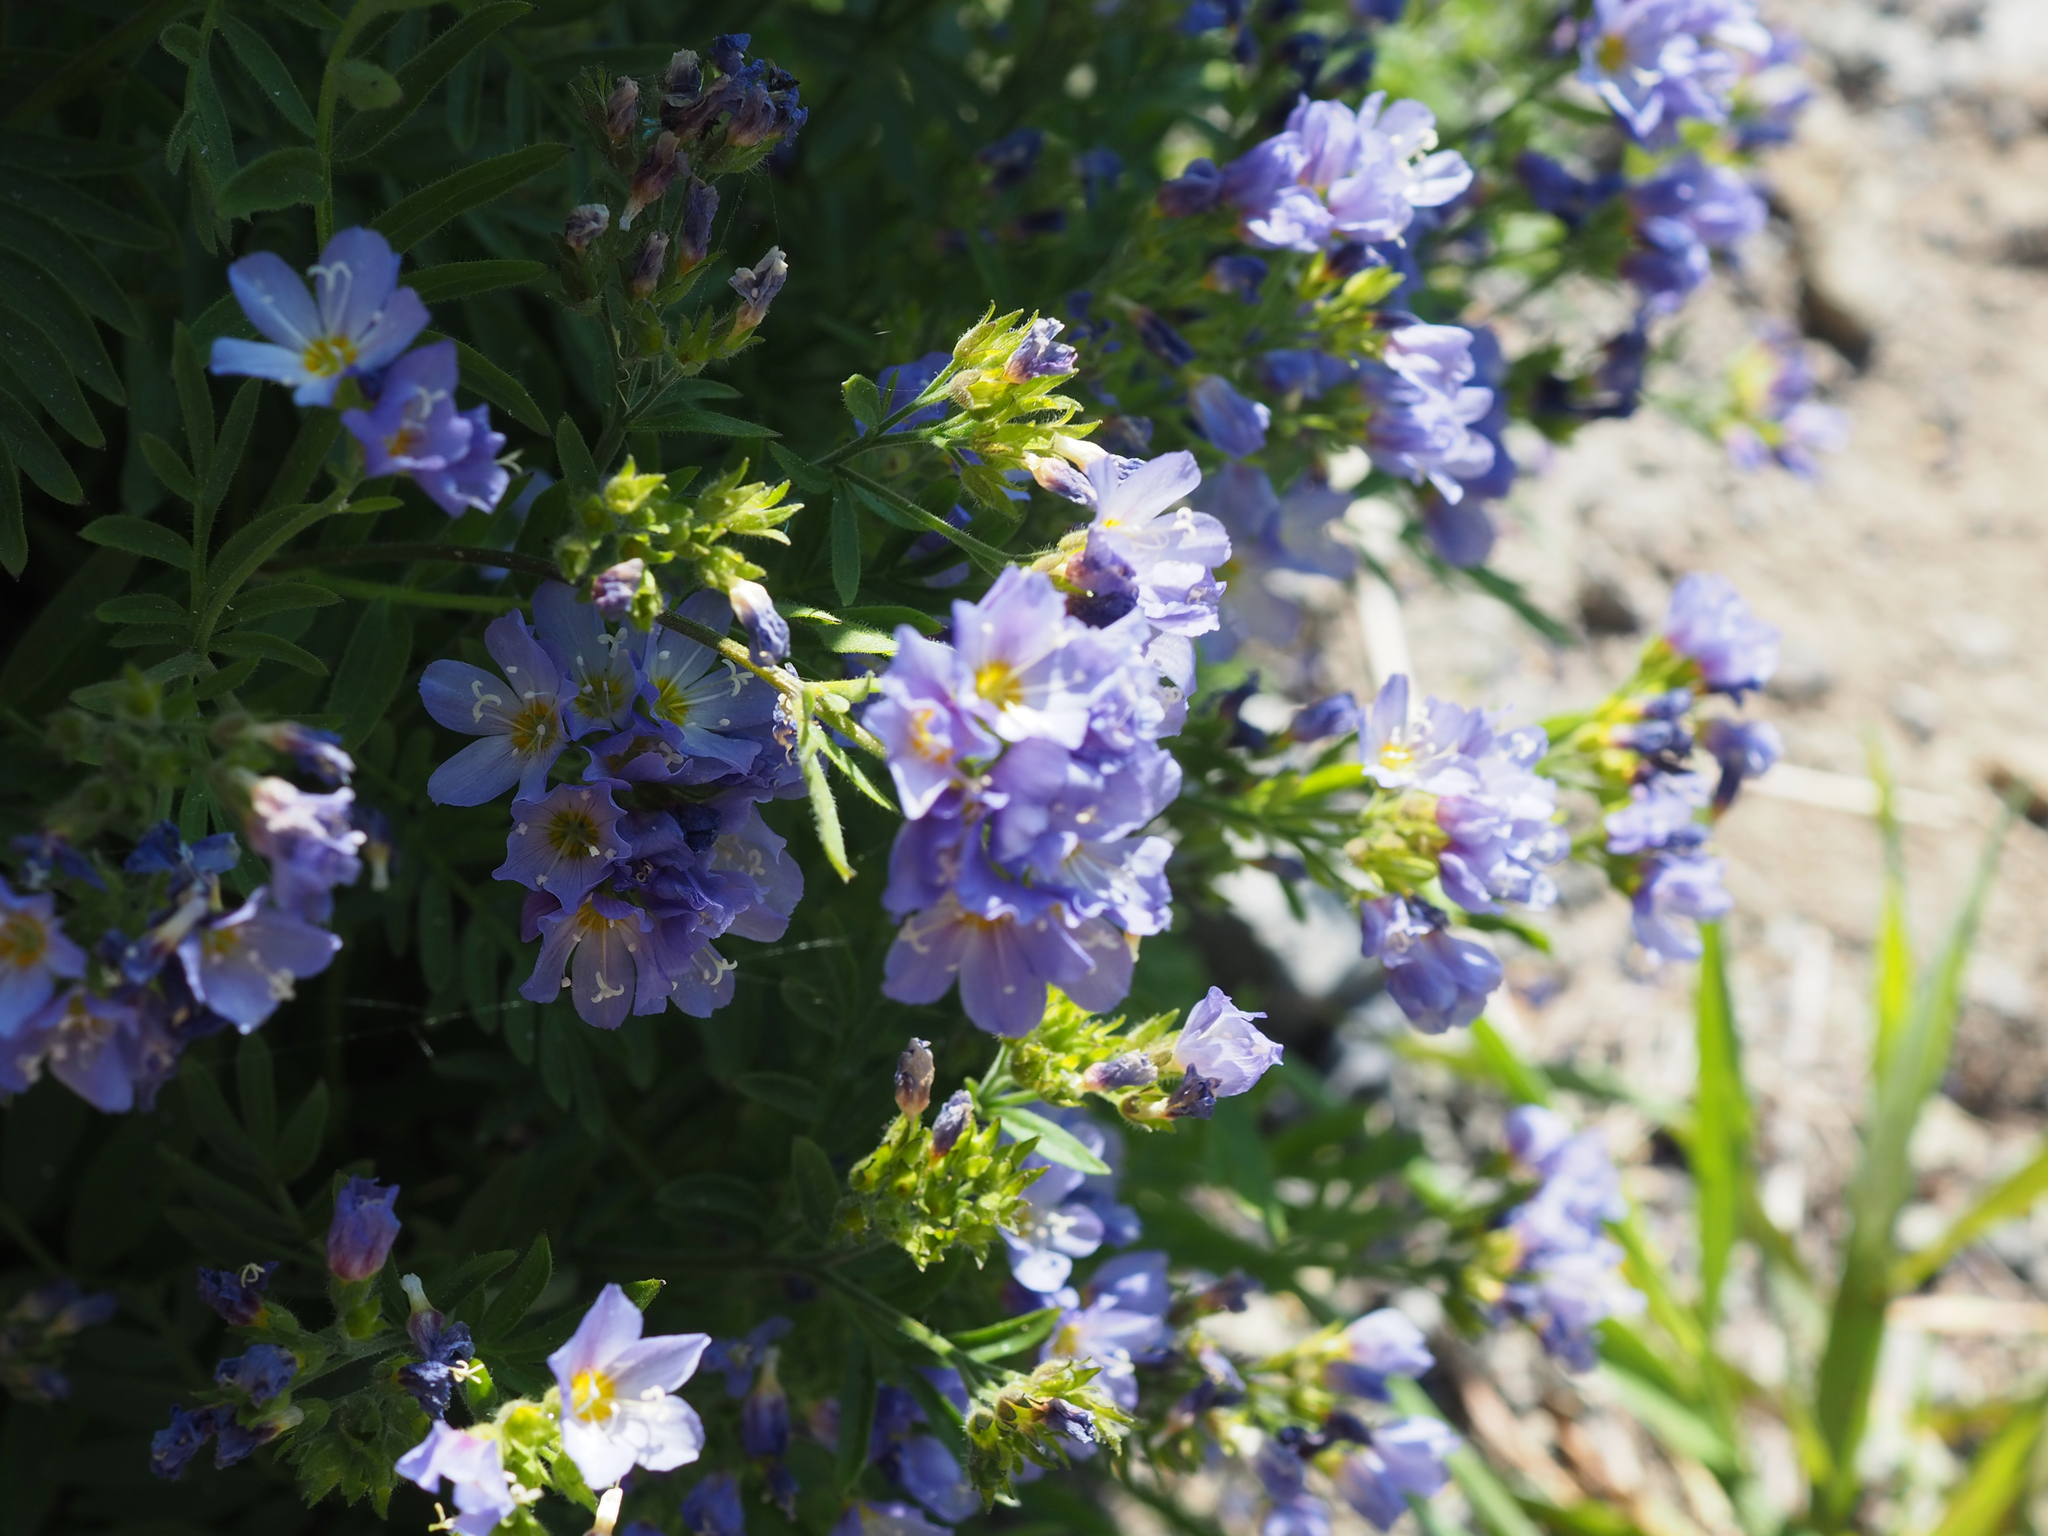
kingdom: Plantae
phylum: Tracheophyta
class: Magnoliopsida
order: Ericales
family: Polemoniaceae
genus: Polemonium
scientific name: Polemonium californicum
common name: California jacob's ladder
